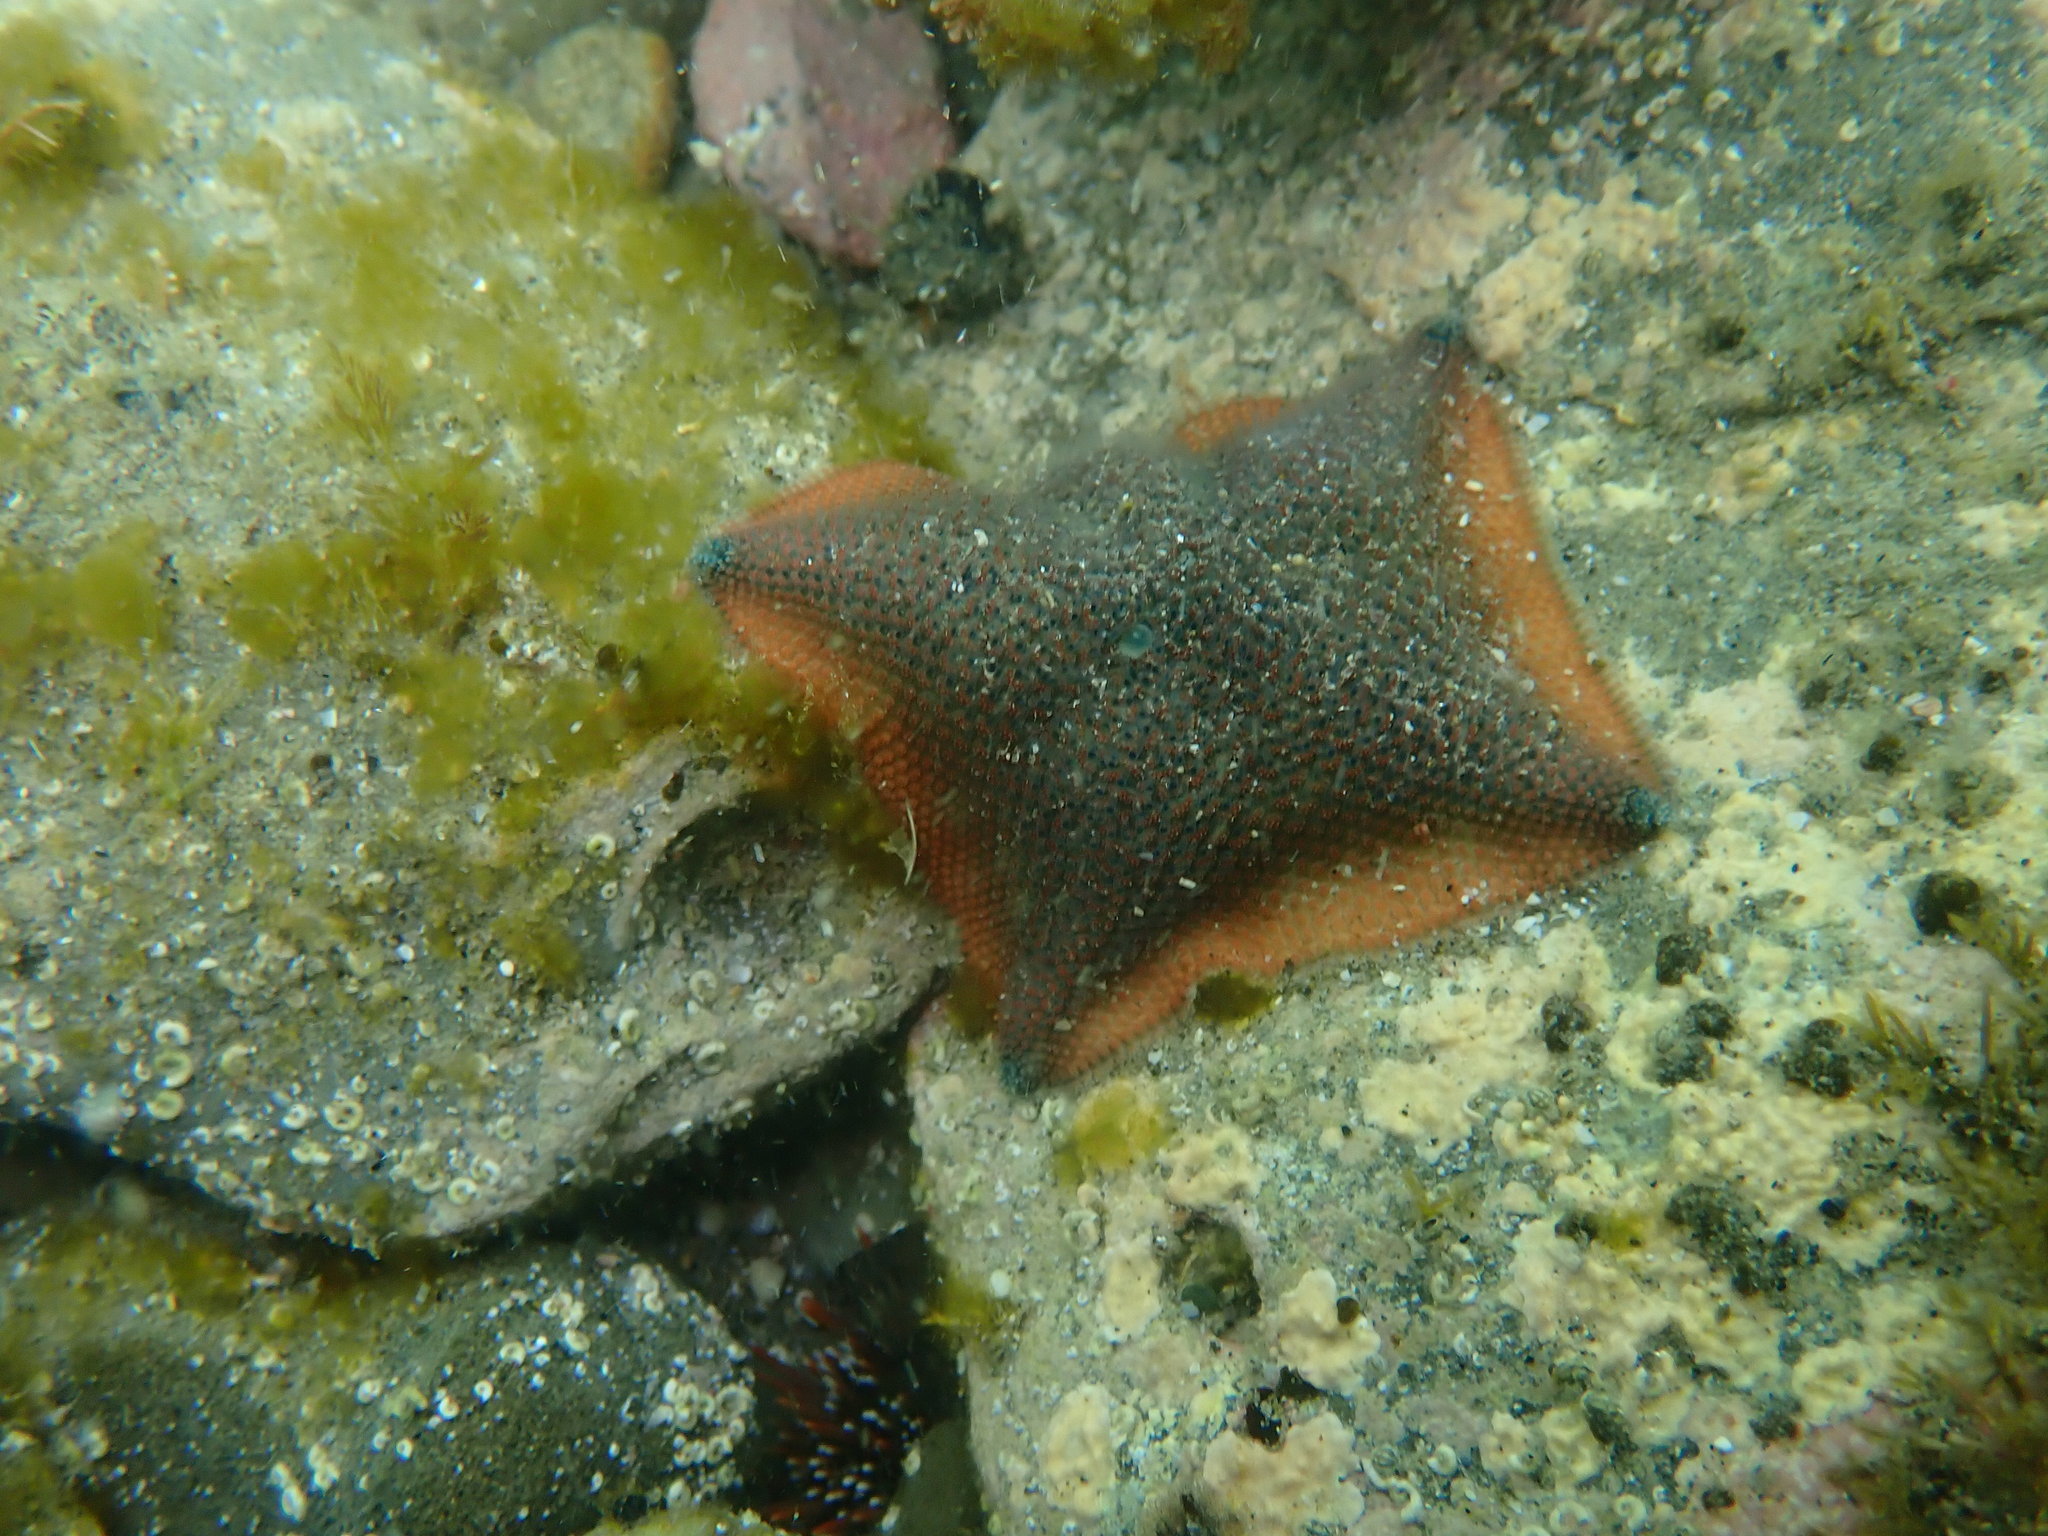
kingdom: Animalia
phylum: Echinodermata
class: Asteroidea
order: Valvatida
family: Asterinidae
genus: Patiriella
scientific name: Patiriella regularis
